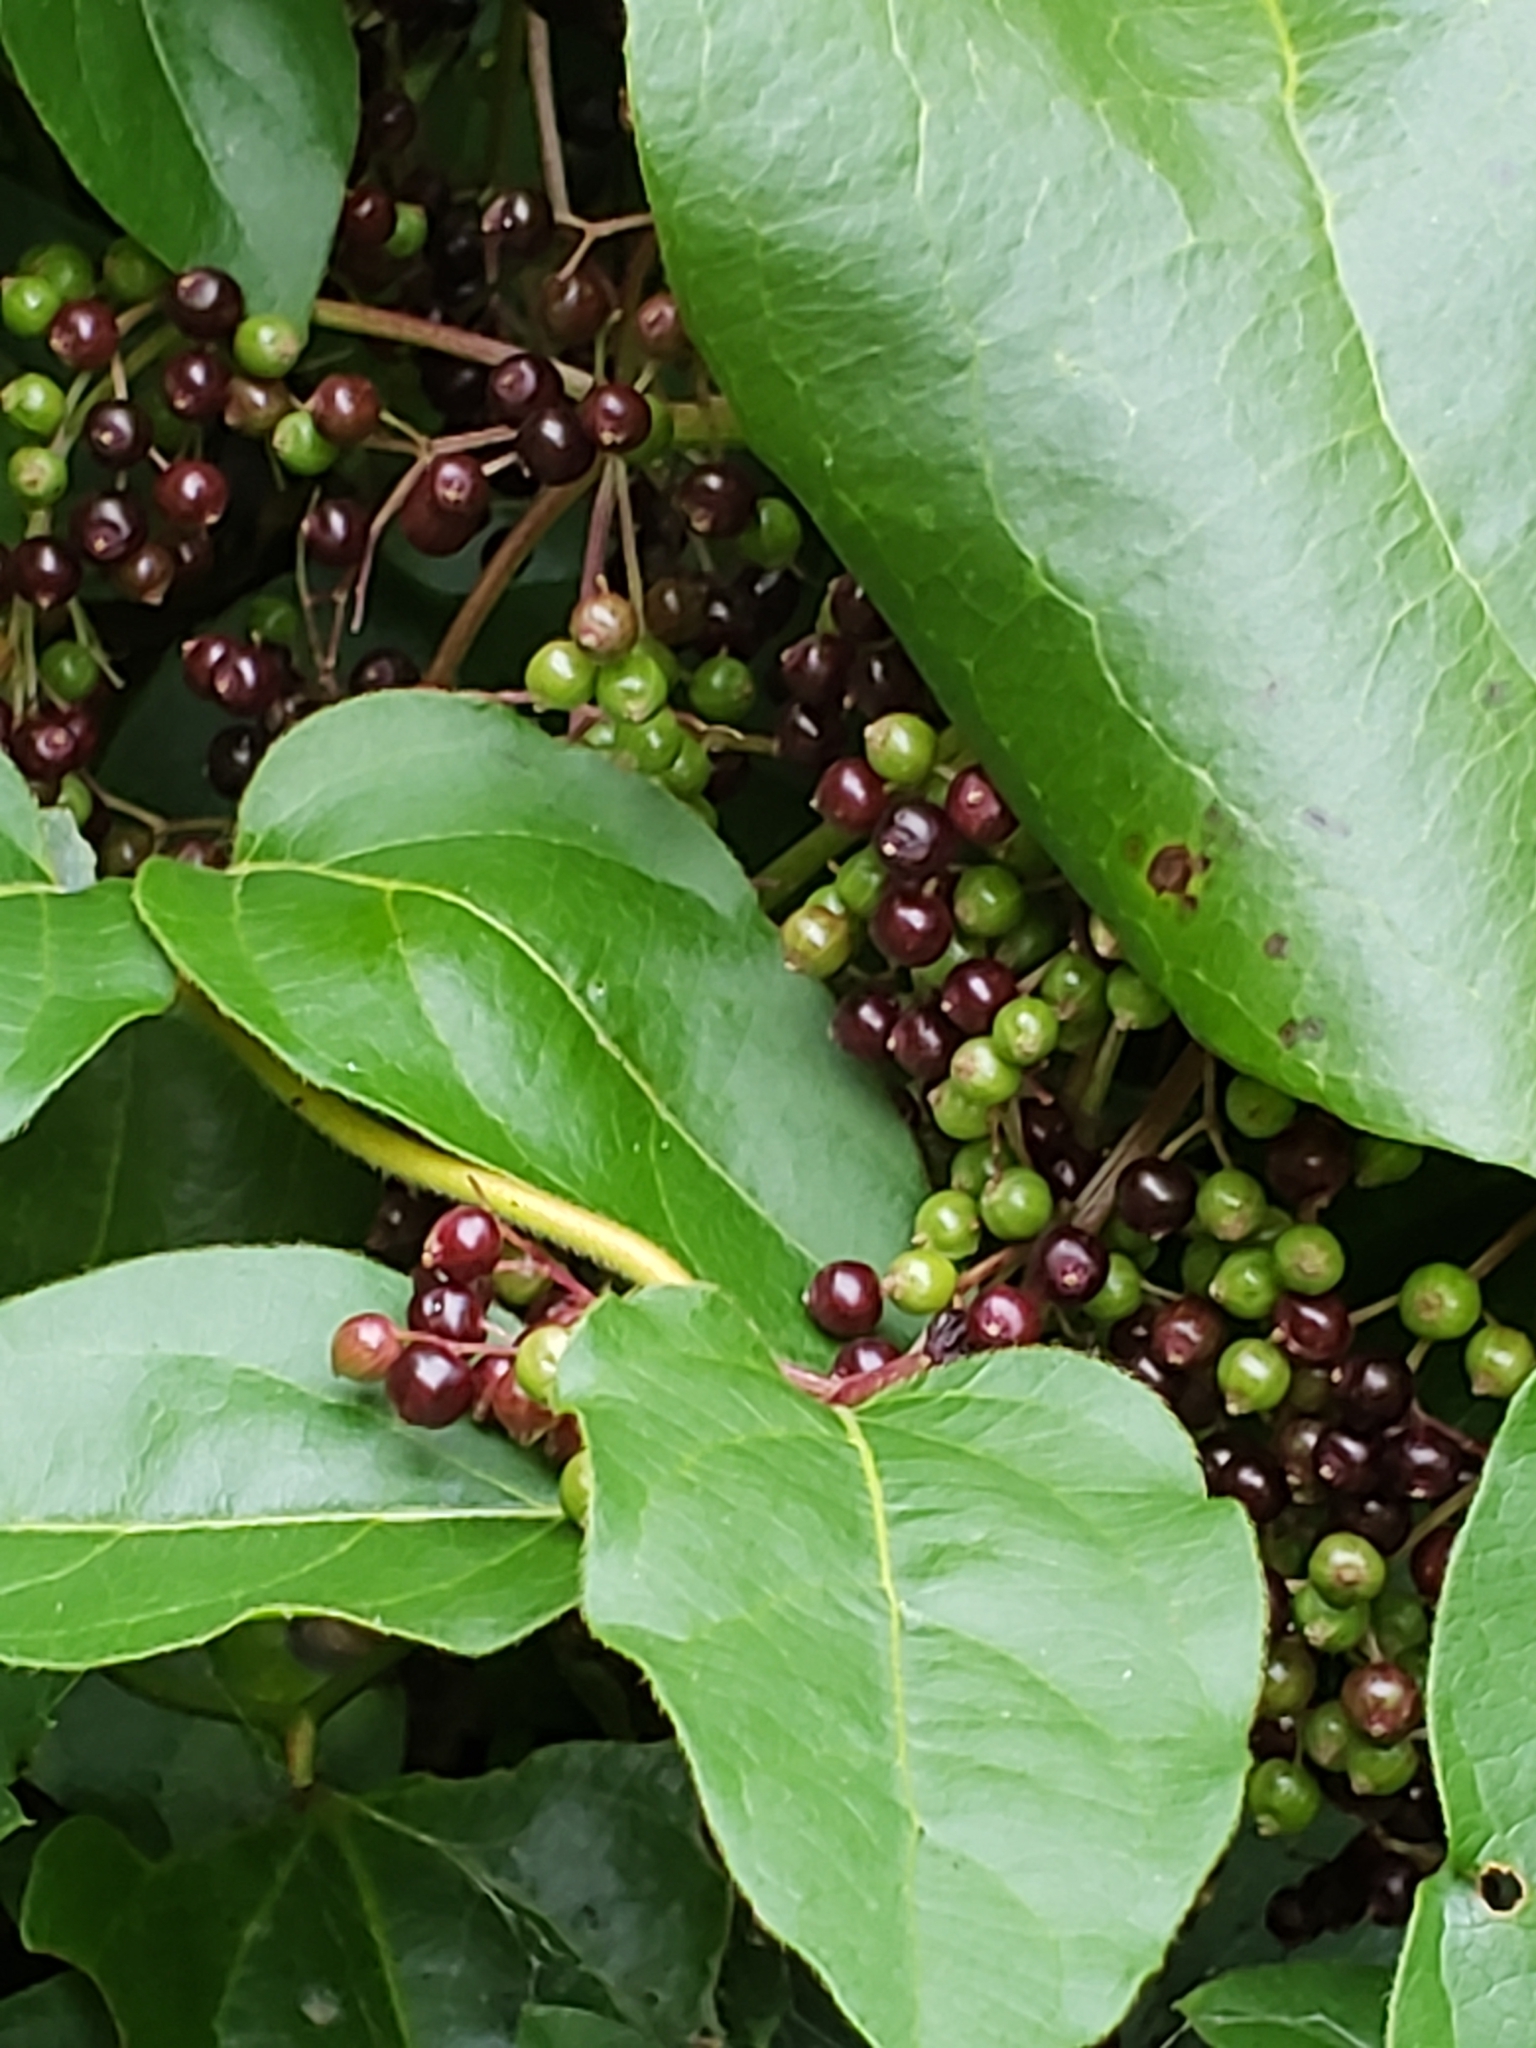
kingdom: Plantae
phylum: Tracheophyta
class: Magnoliopsida
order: Dipsacales
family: Viburnaceae
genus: Sambucus
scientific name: Sambucus canadensis
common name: American elder
